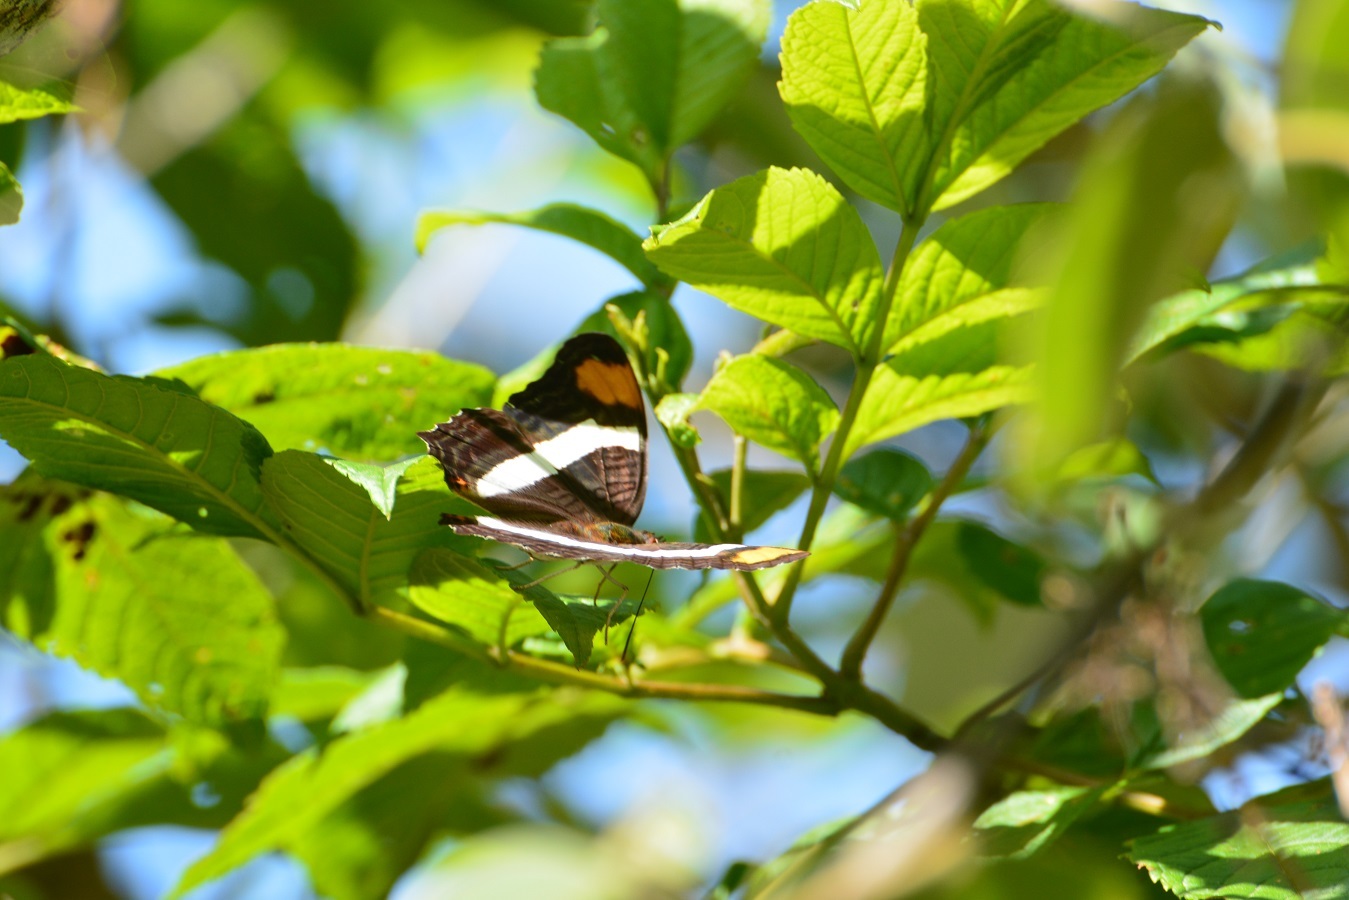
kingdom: Animalia
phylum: Arthropoda
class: Insecta
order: Lepidoptera
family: Nymphalidae
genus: Limenitis
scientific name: Limenitis fessonia
